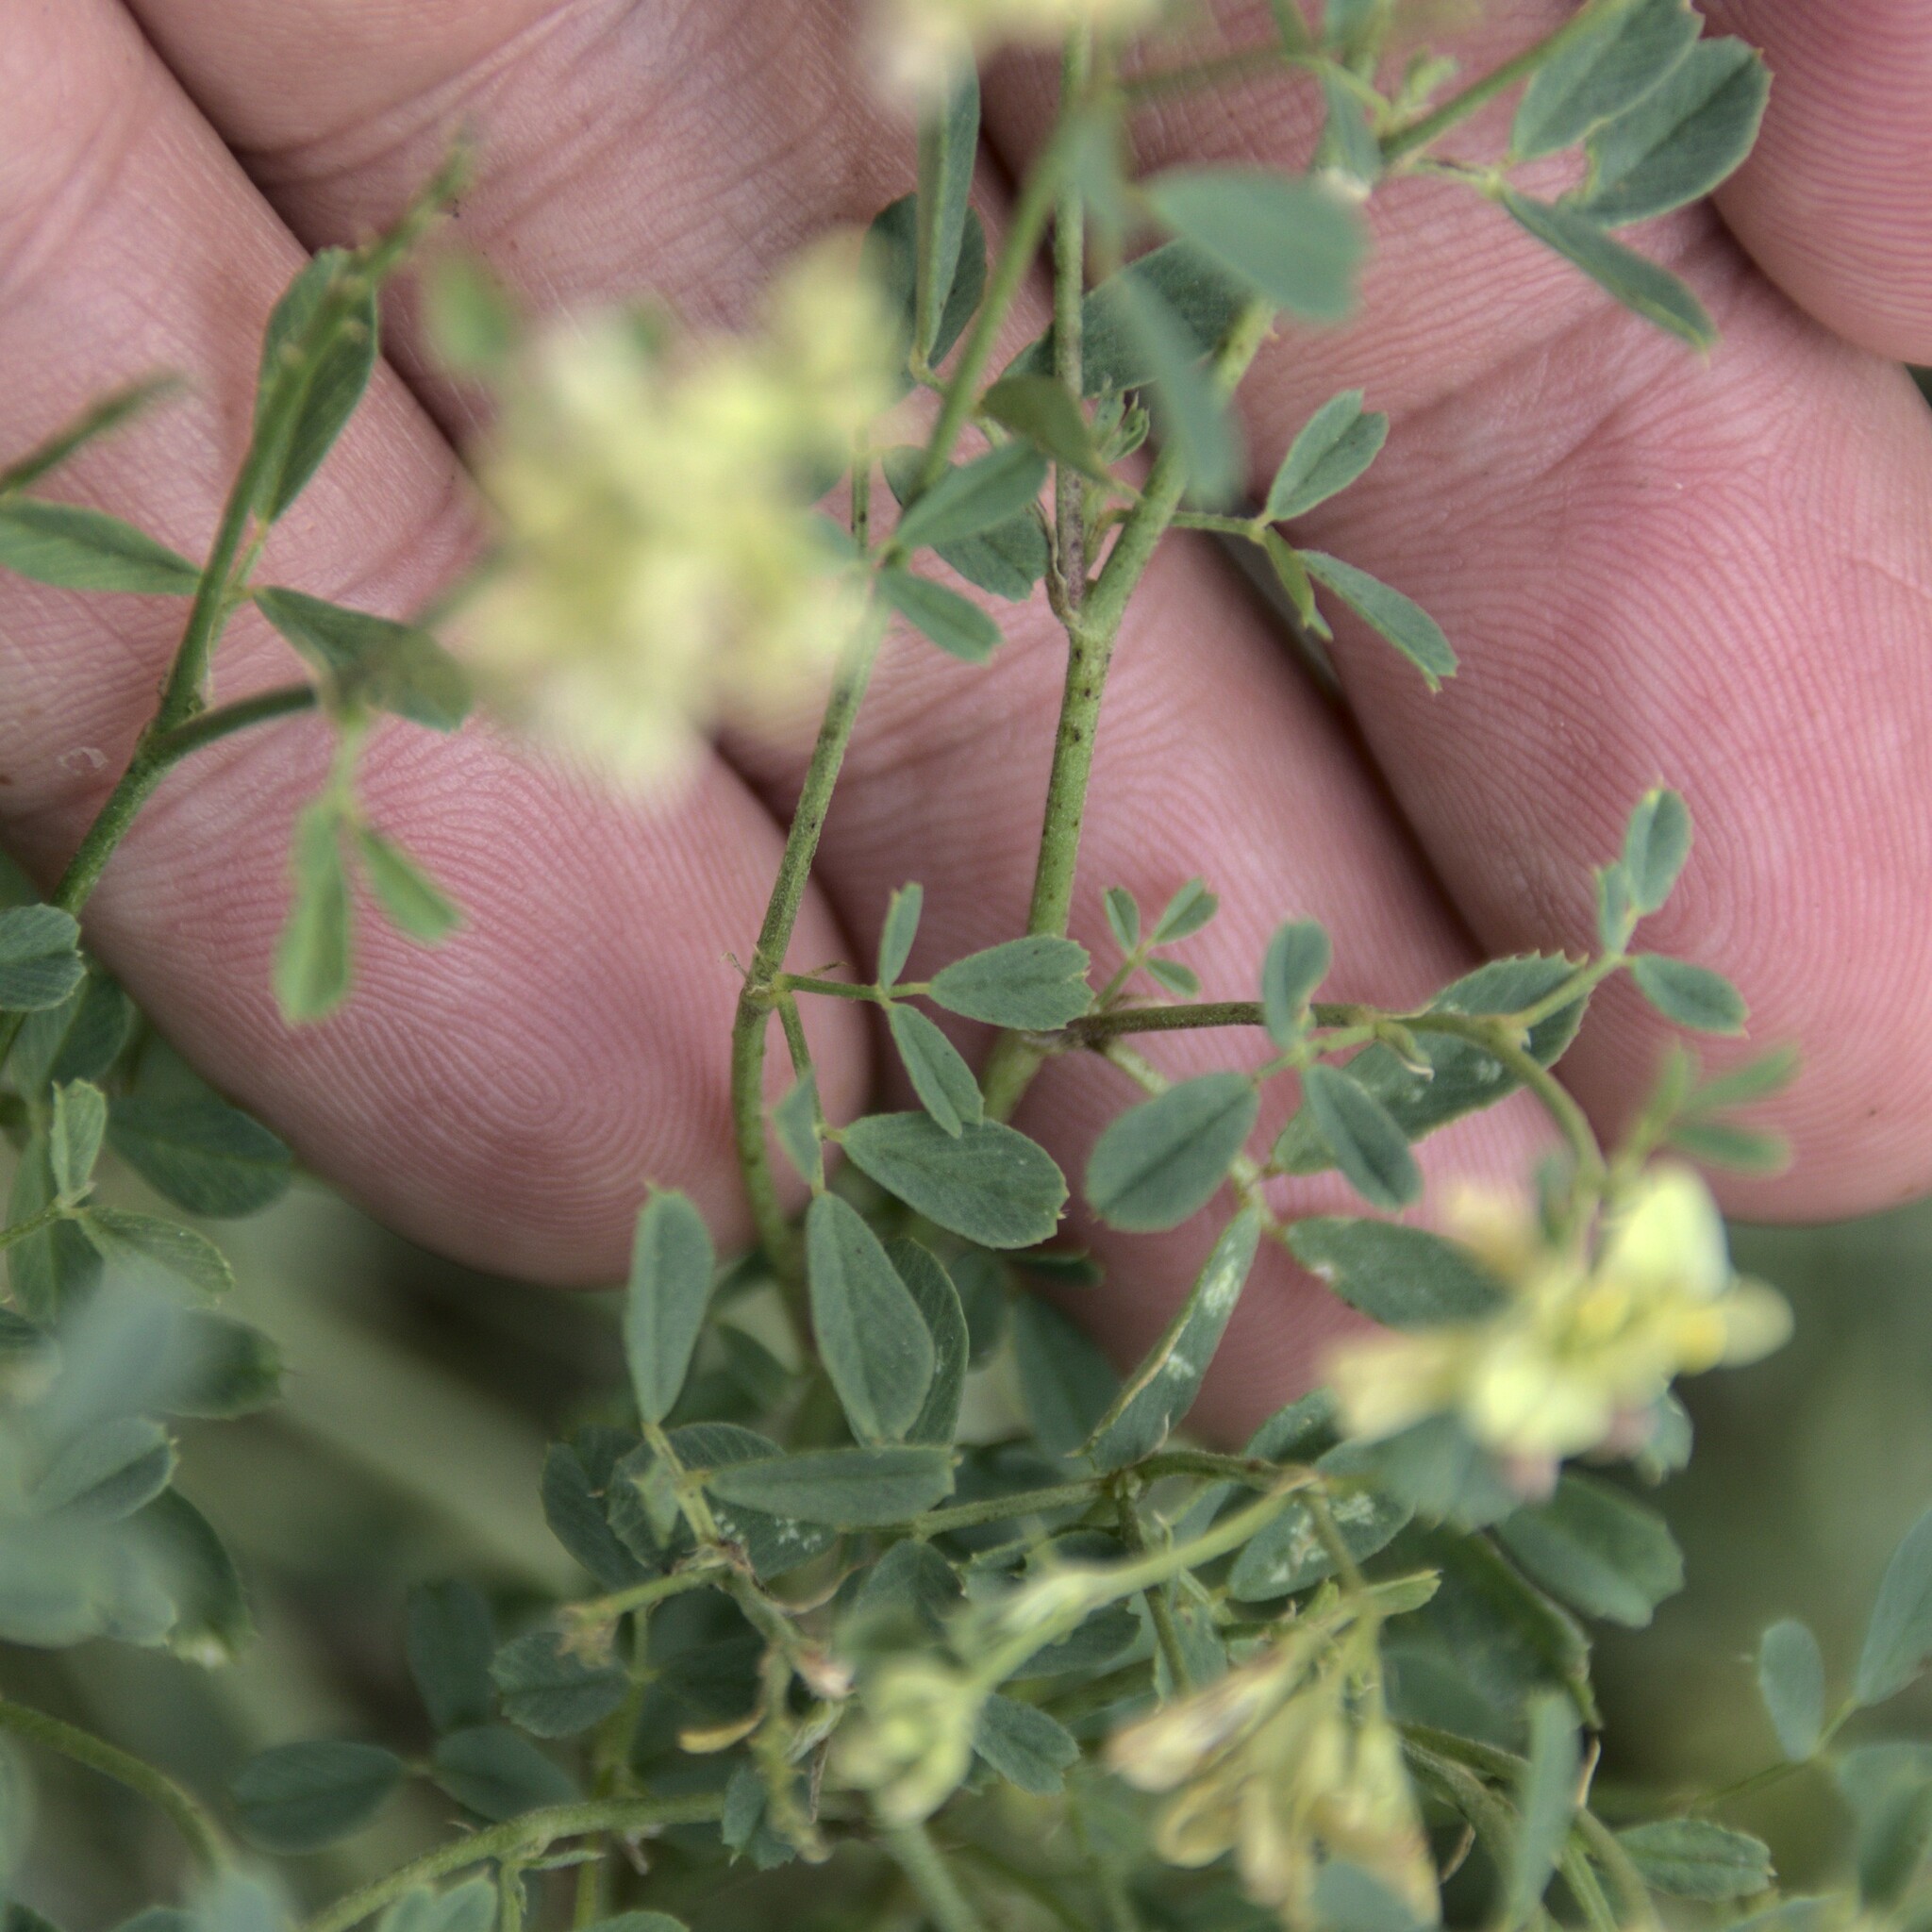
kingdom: Plantae
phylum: Tracheophyta
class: Magnoliopsida
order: Fabales
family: Fabaceae
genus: Medicago
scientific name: Medicago varia
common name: Sand lucerne
